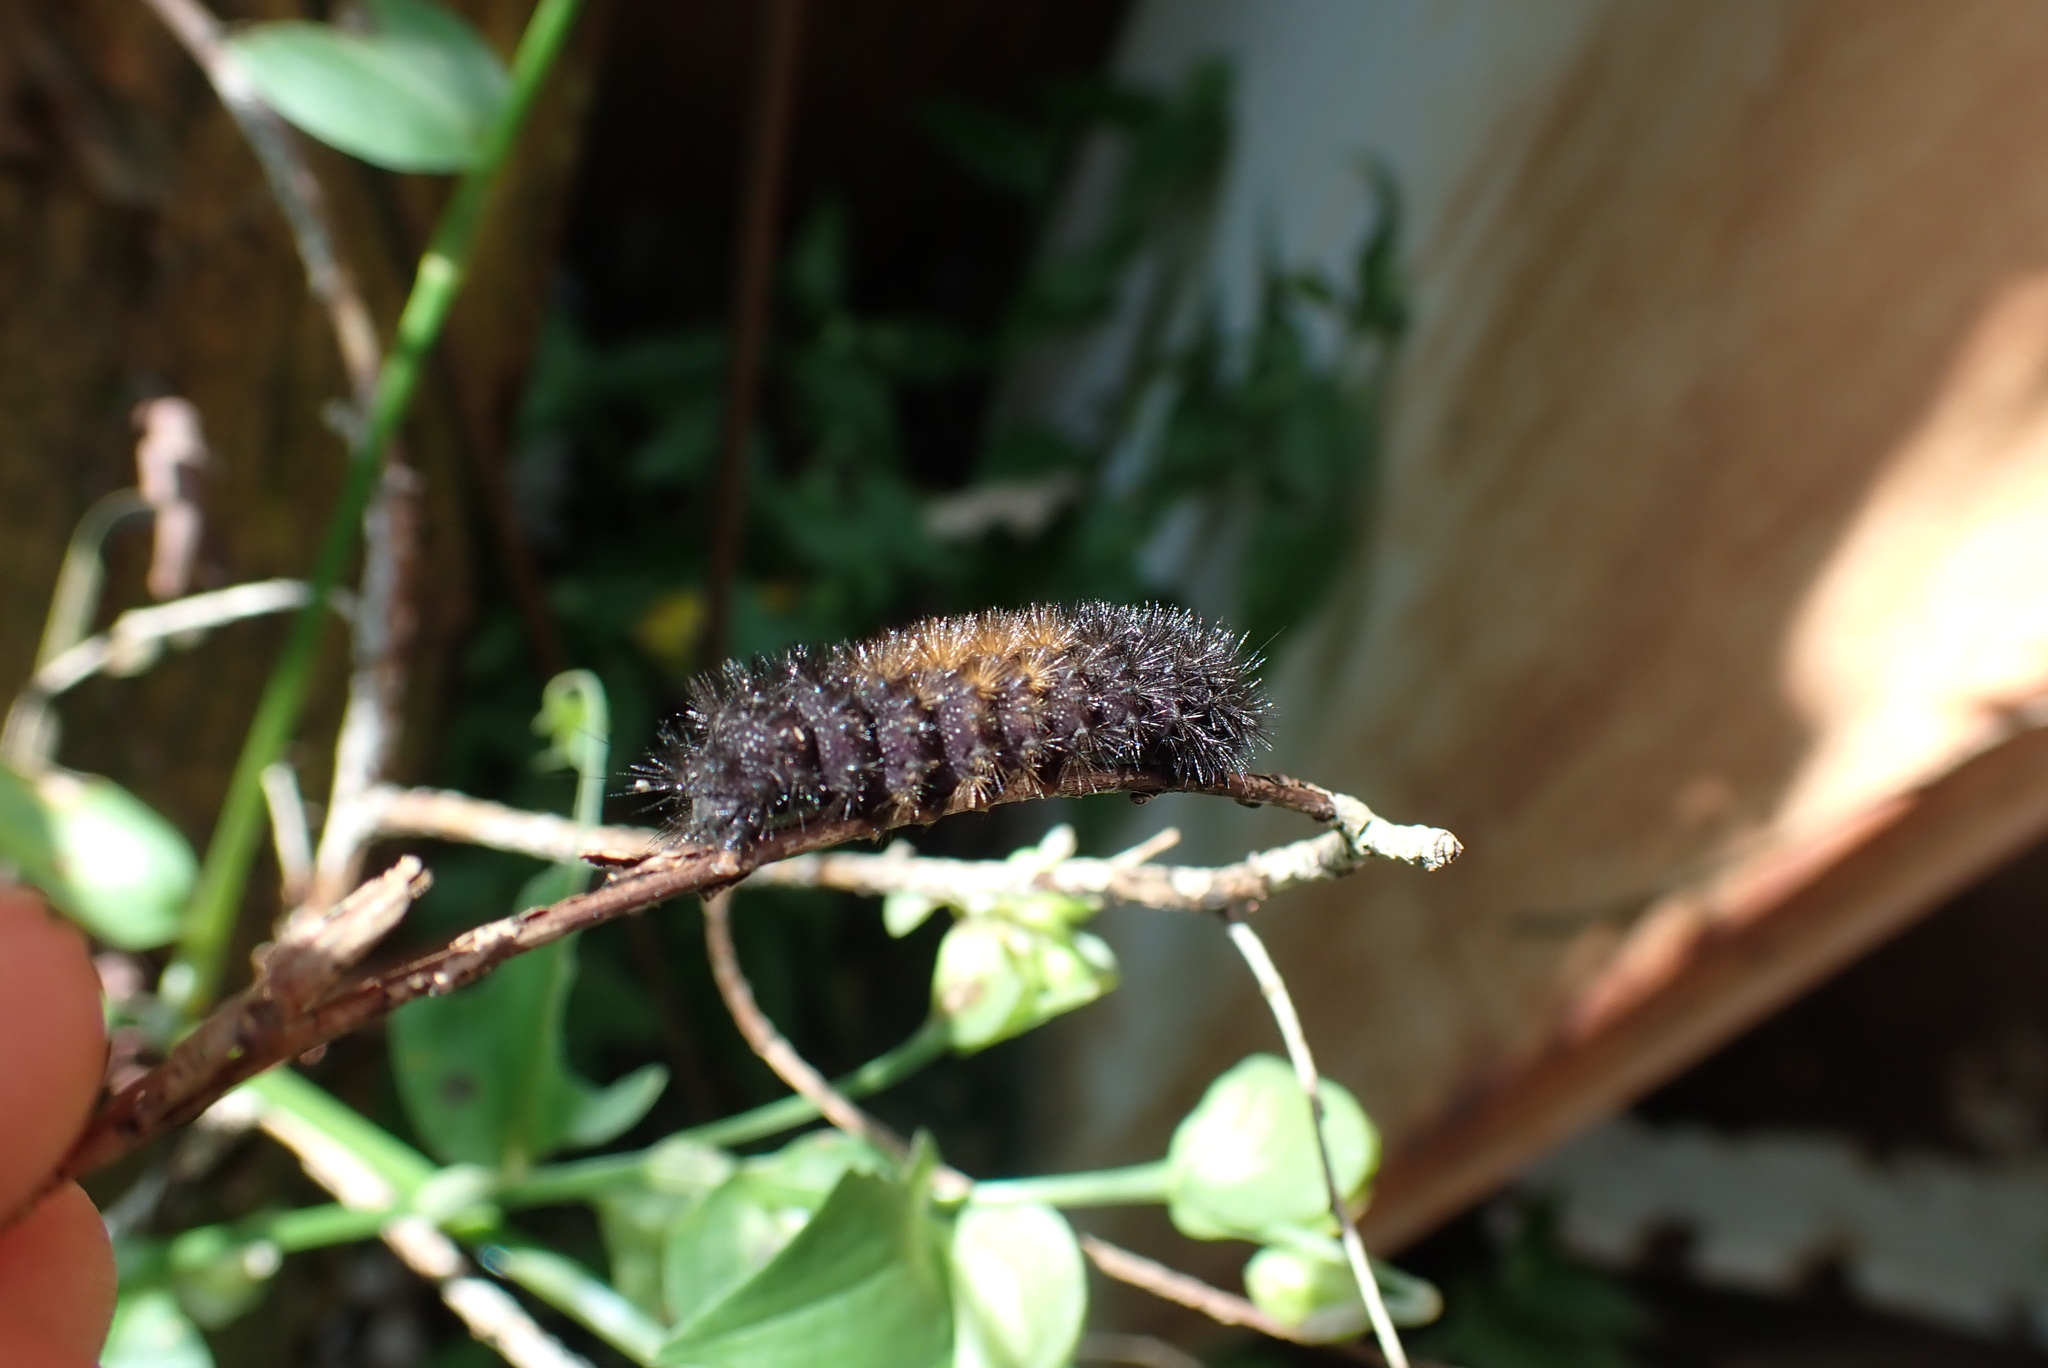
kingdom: Animalia
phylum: Arthropoda
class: Insecta
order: Lepidoptera
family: Erebidae
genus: Pyrrharctia
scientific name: Pyrrharctia isabella
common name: Isabella tiger moth
